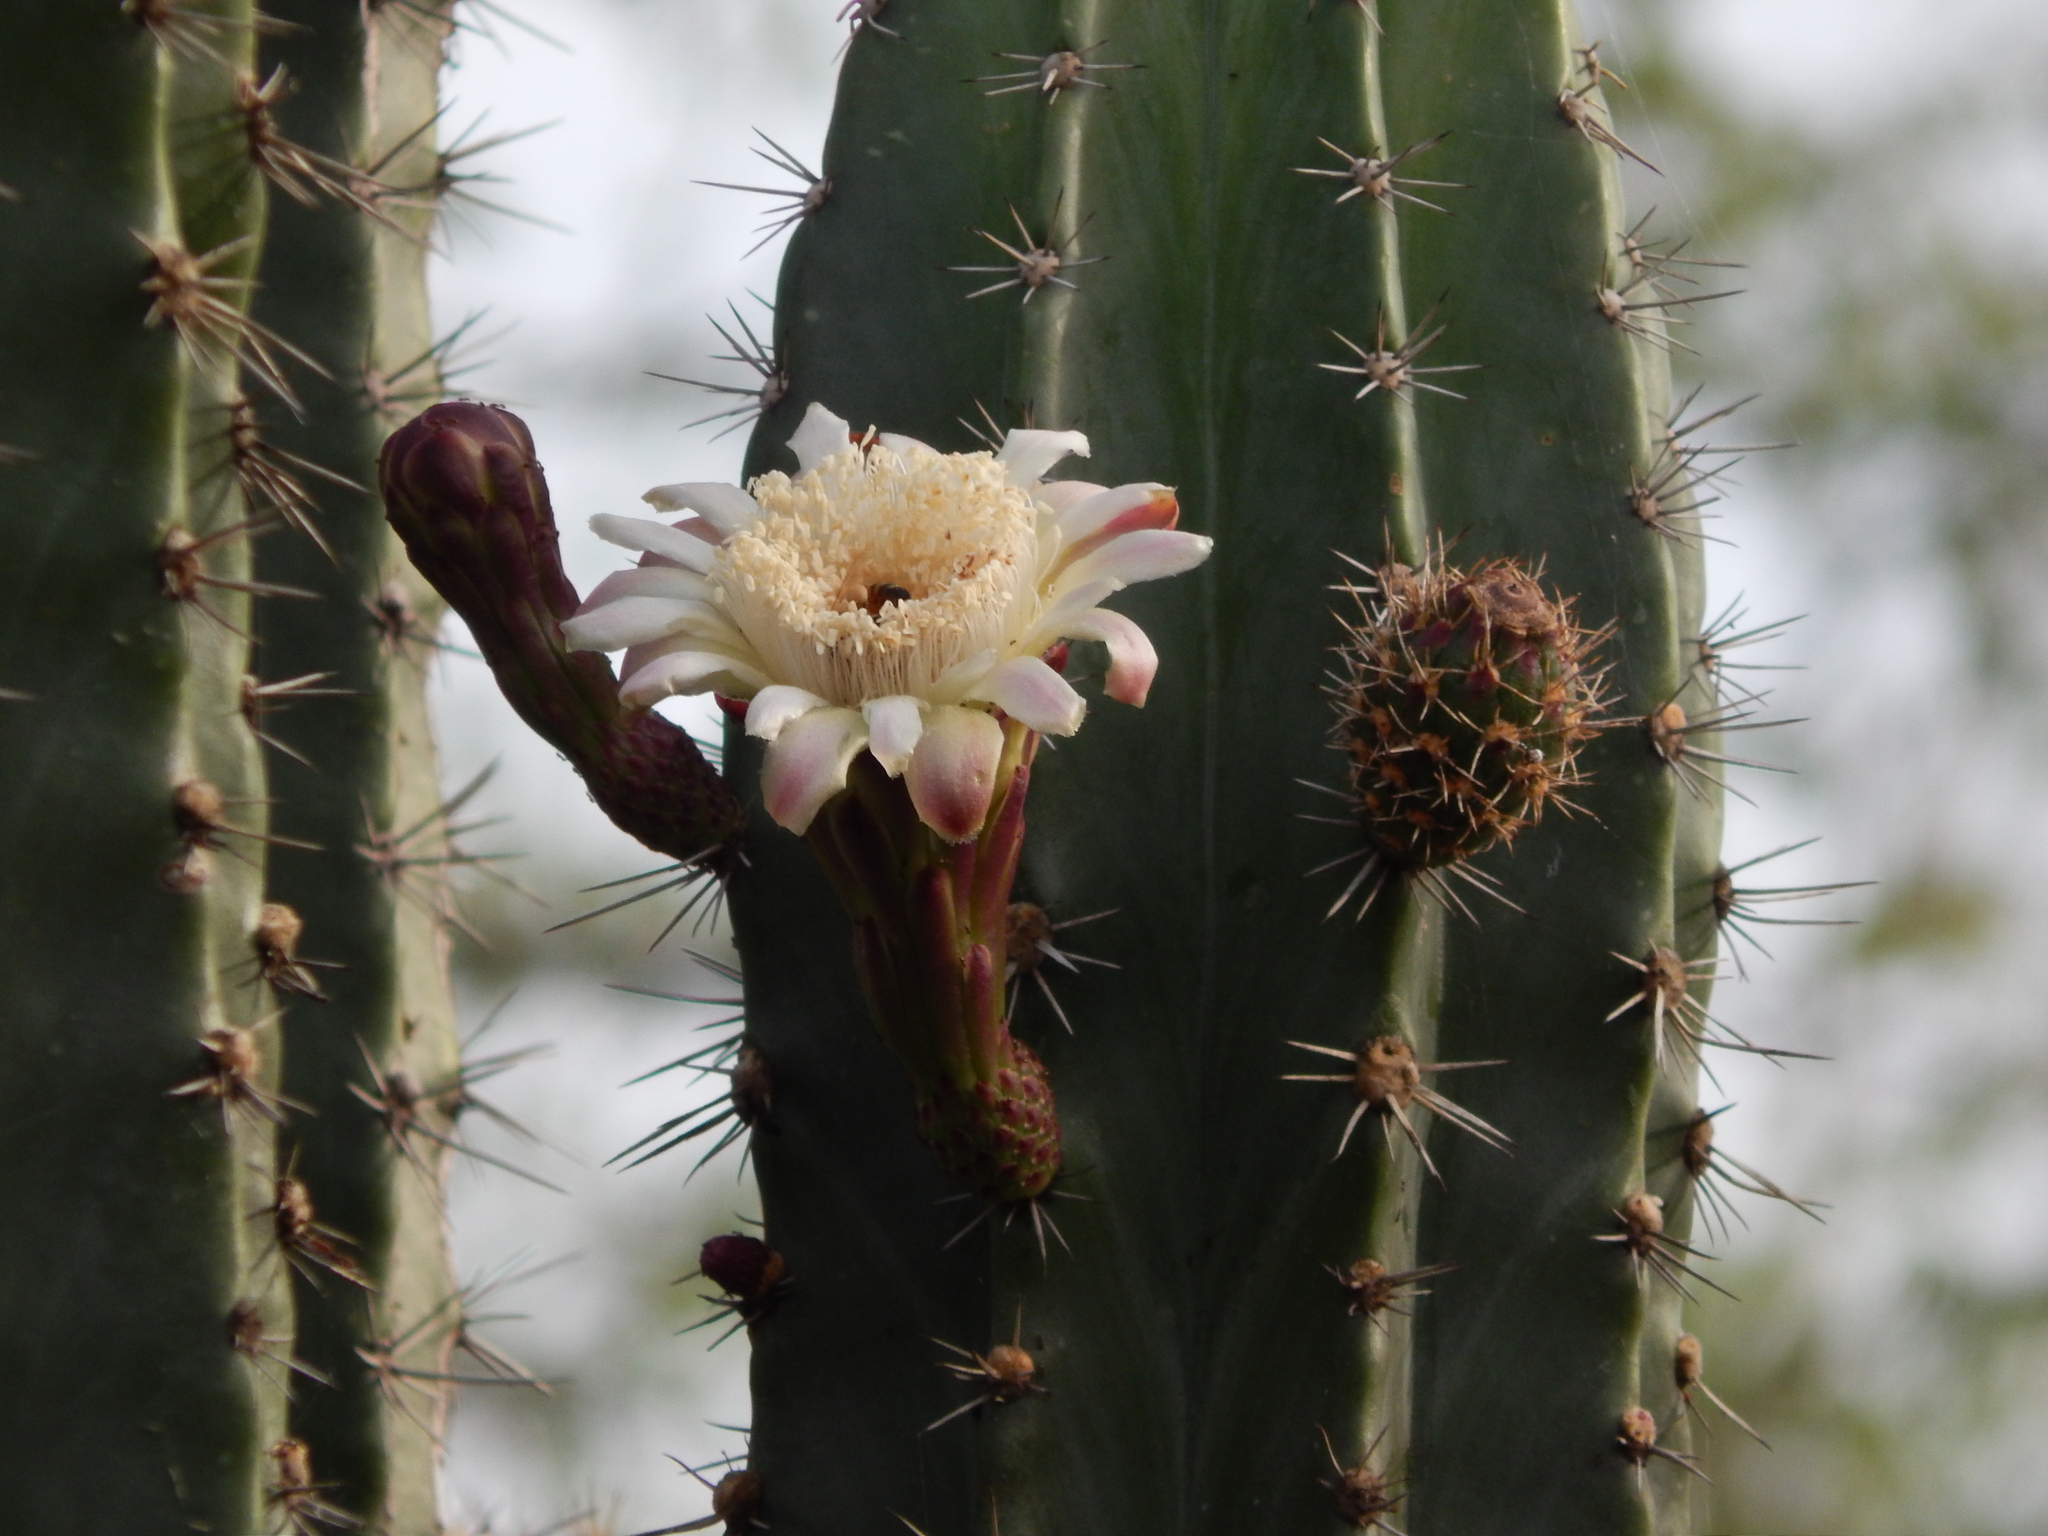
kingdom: Plantae
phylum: Tracheophyta
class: Magnoliopsida
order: Caryophyllales
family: Cactaceae
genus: Stenocereus
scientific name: Stenocereus huastecorum
